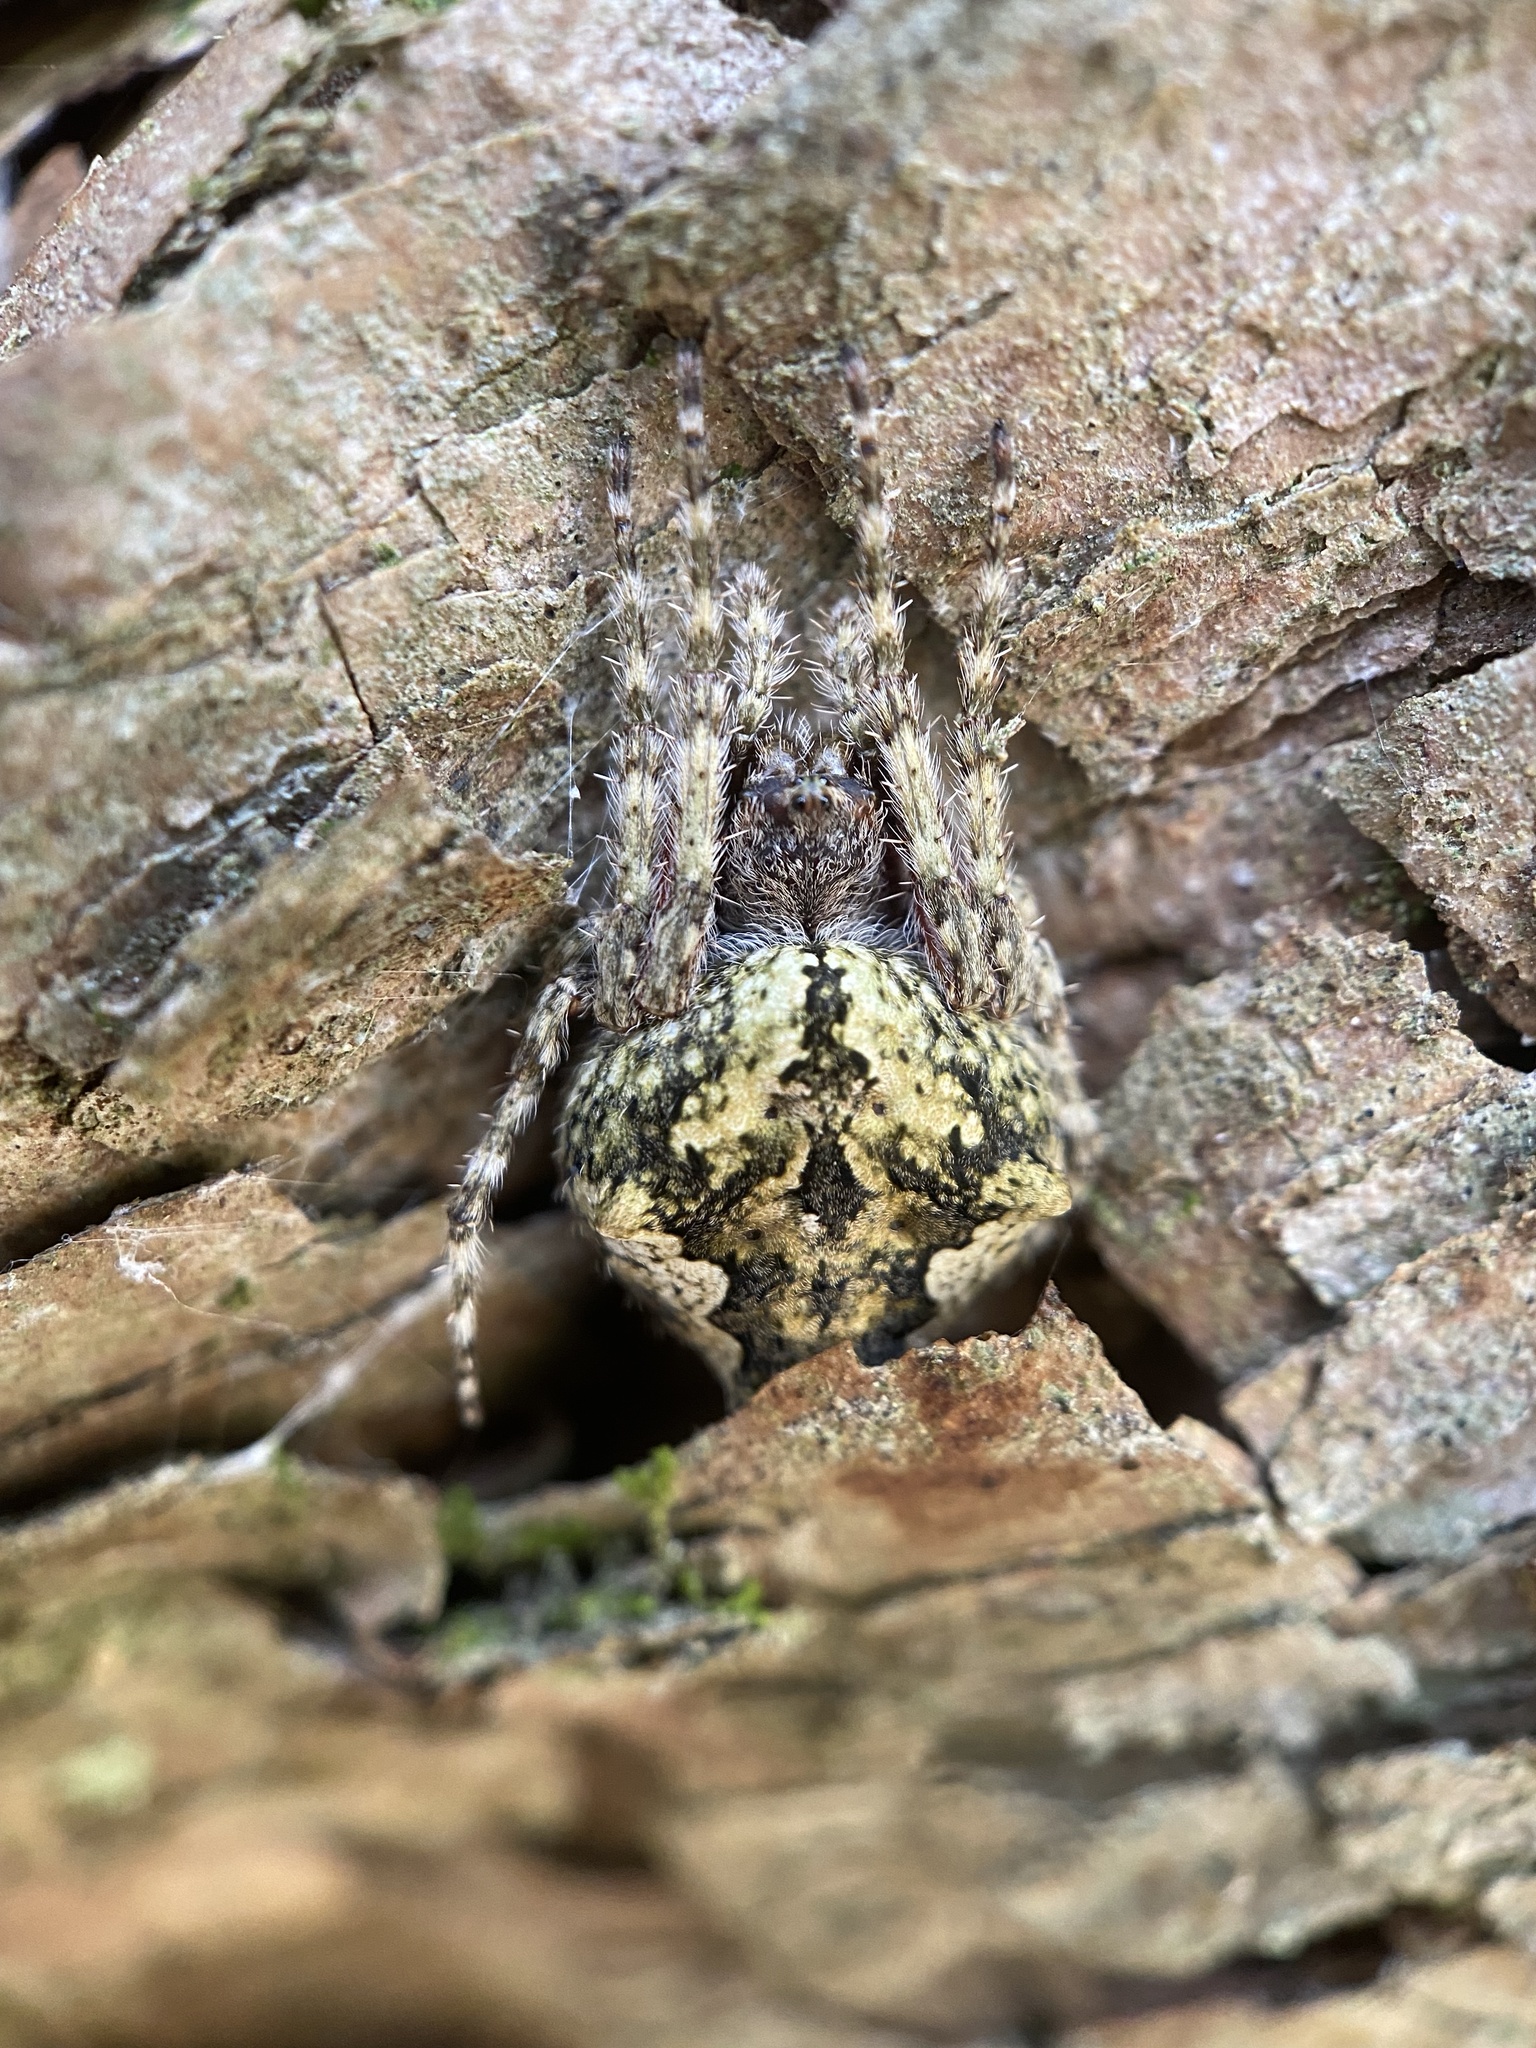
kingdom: Animalia
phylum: Arthropoda
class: Arachnida
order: Araneae
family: Araneidae
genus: Eriophora
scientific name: Eriophora pustulosa
